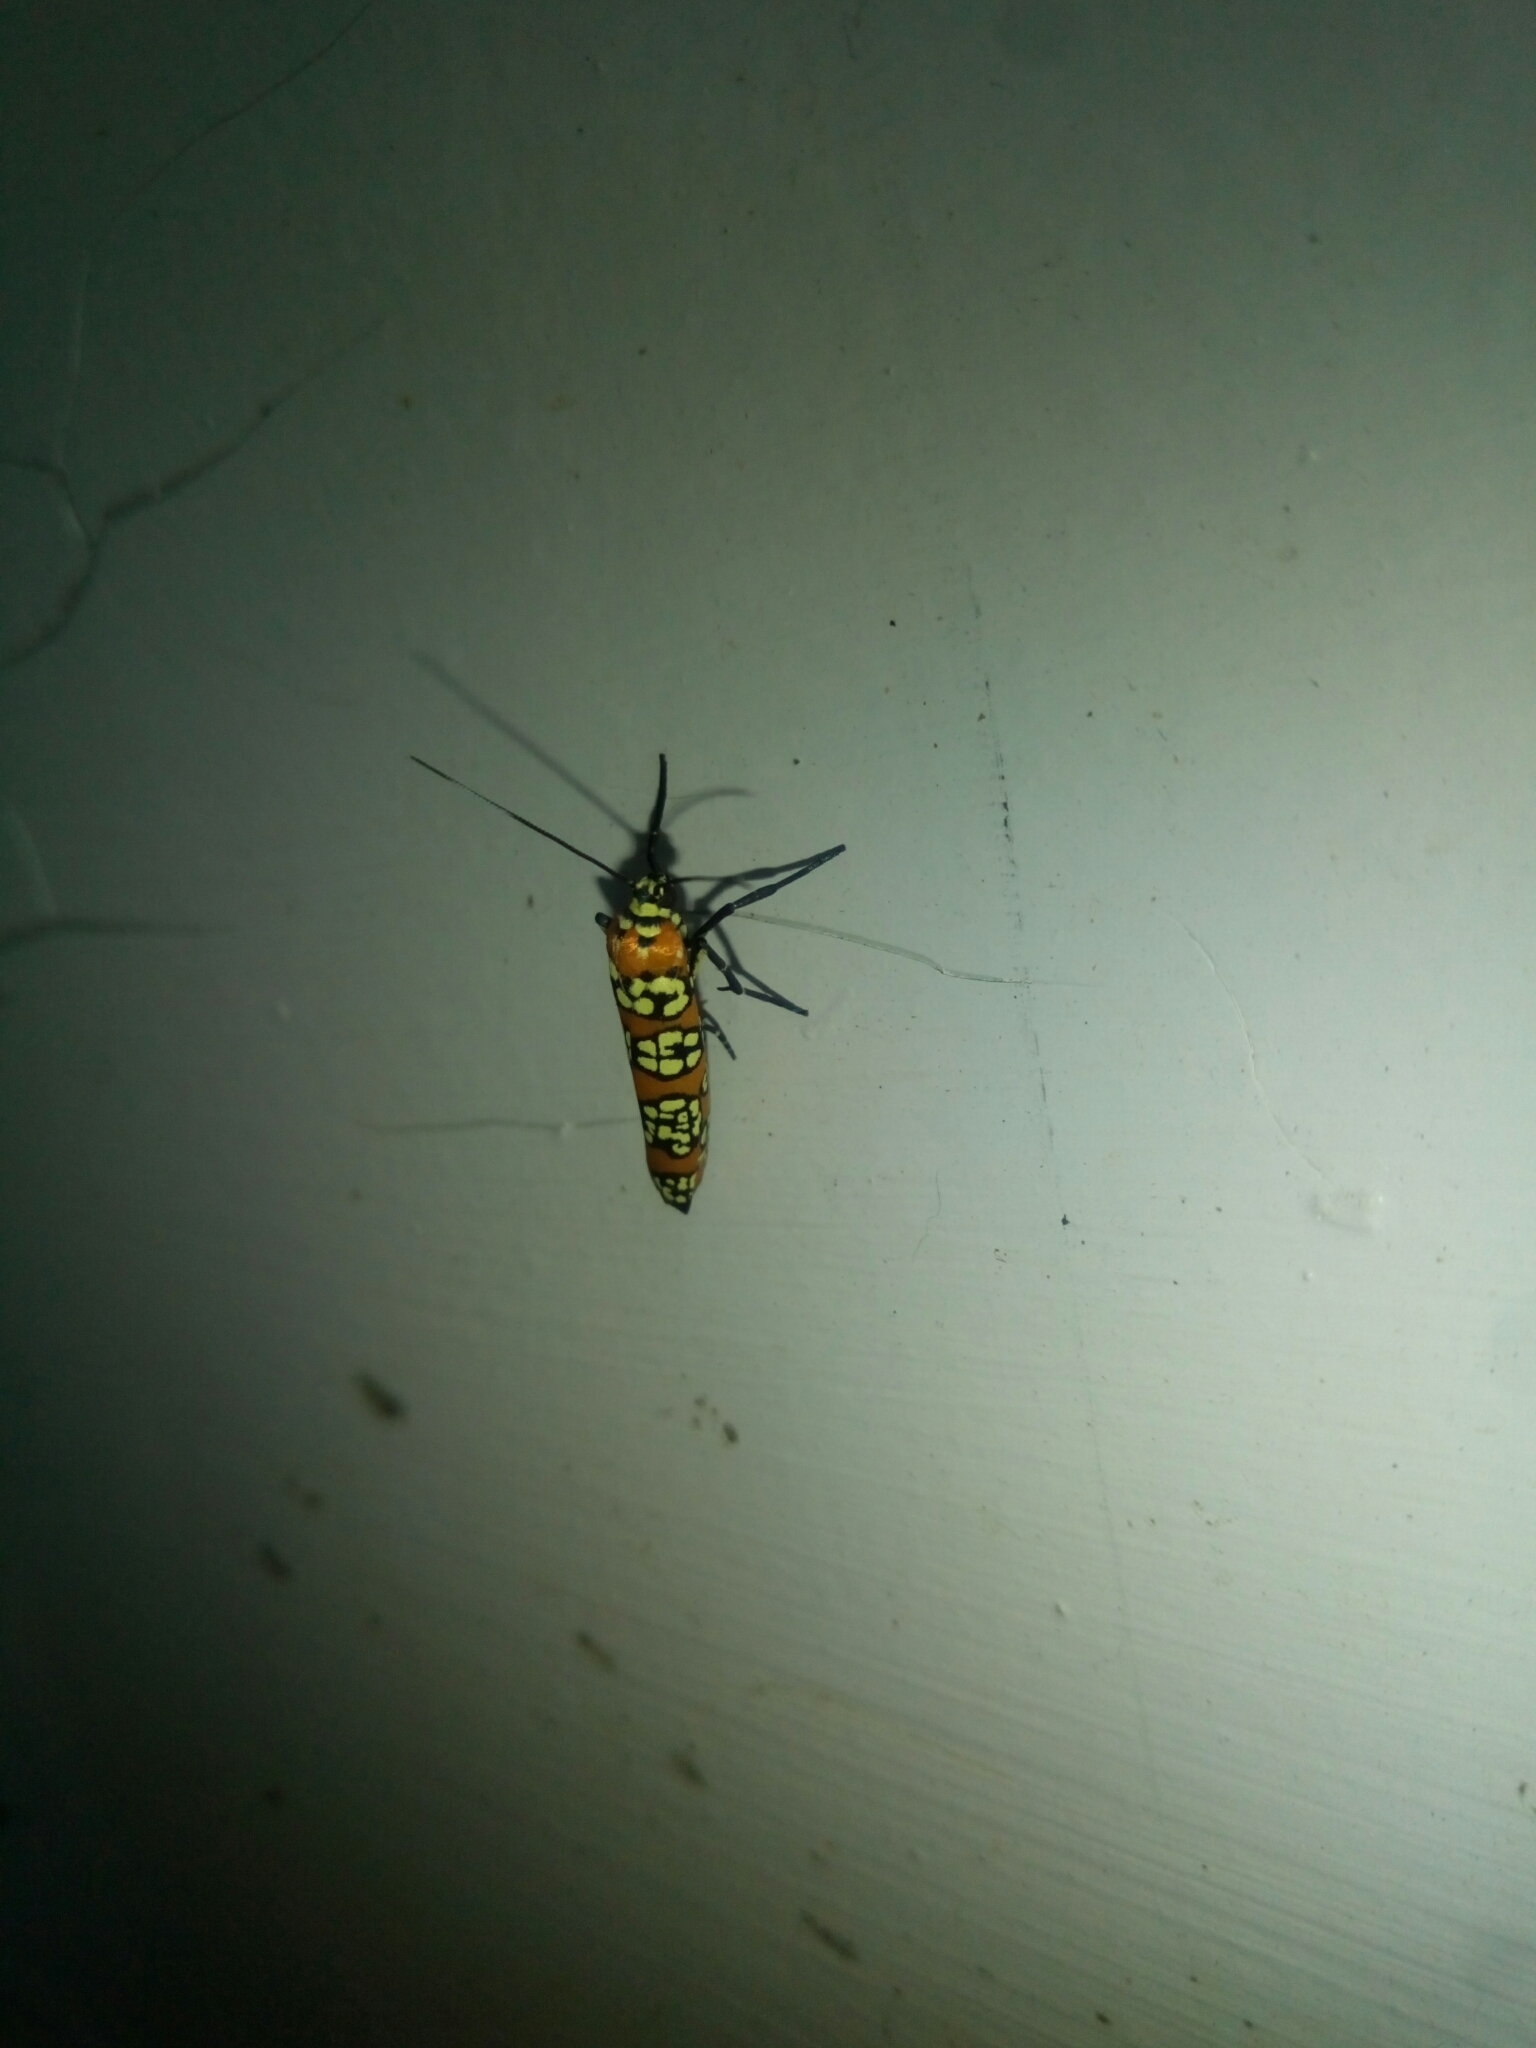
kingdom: Animalia
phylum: Arthropoda
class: Insecta
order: Lepidoptera
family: Attevidae
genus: Atteva
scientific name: Atteva punctella
